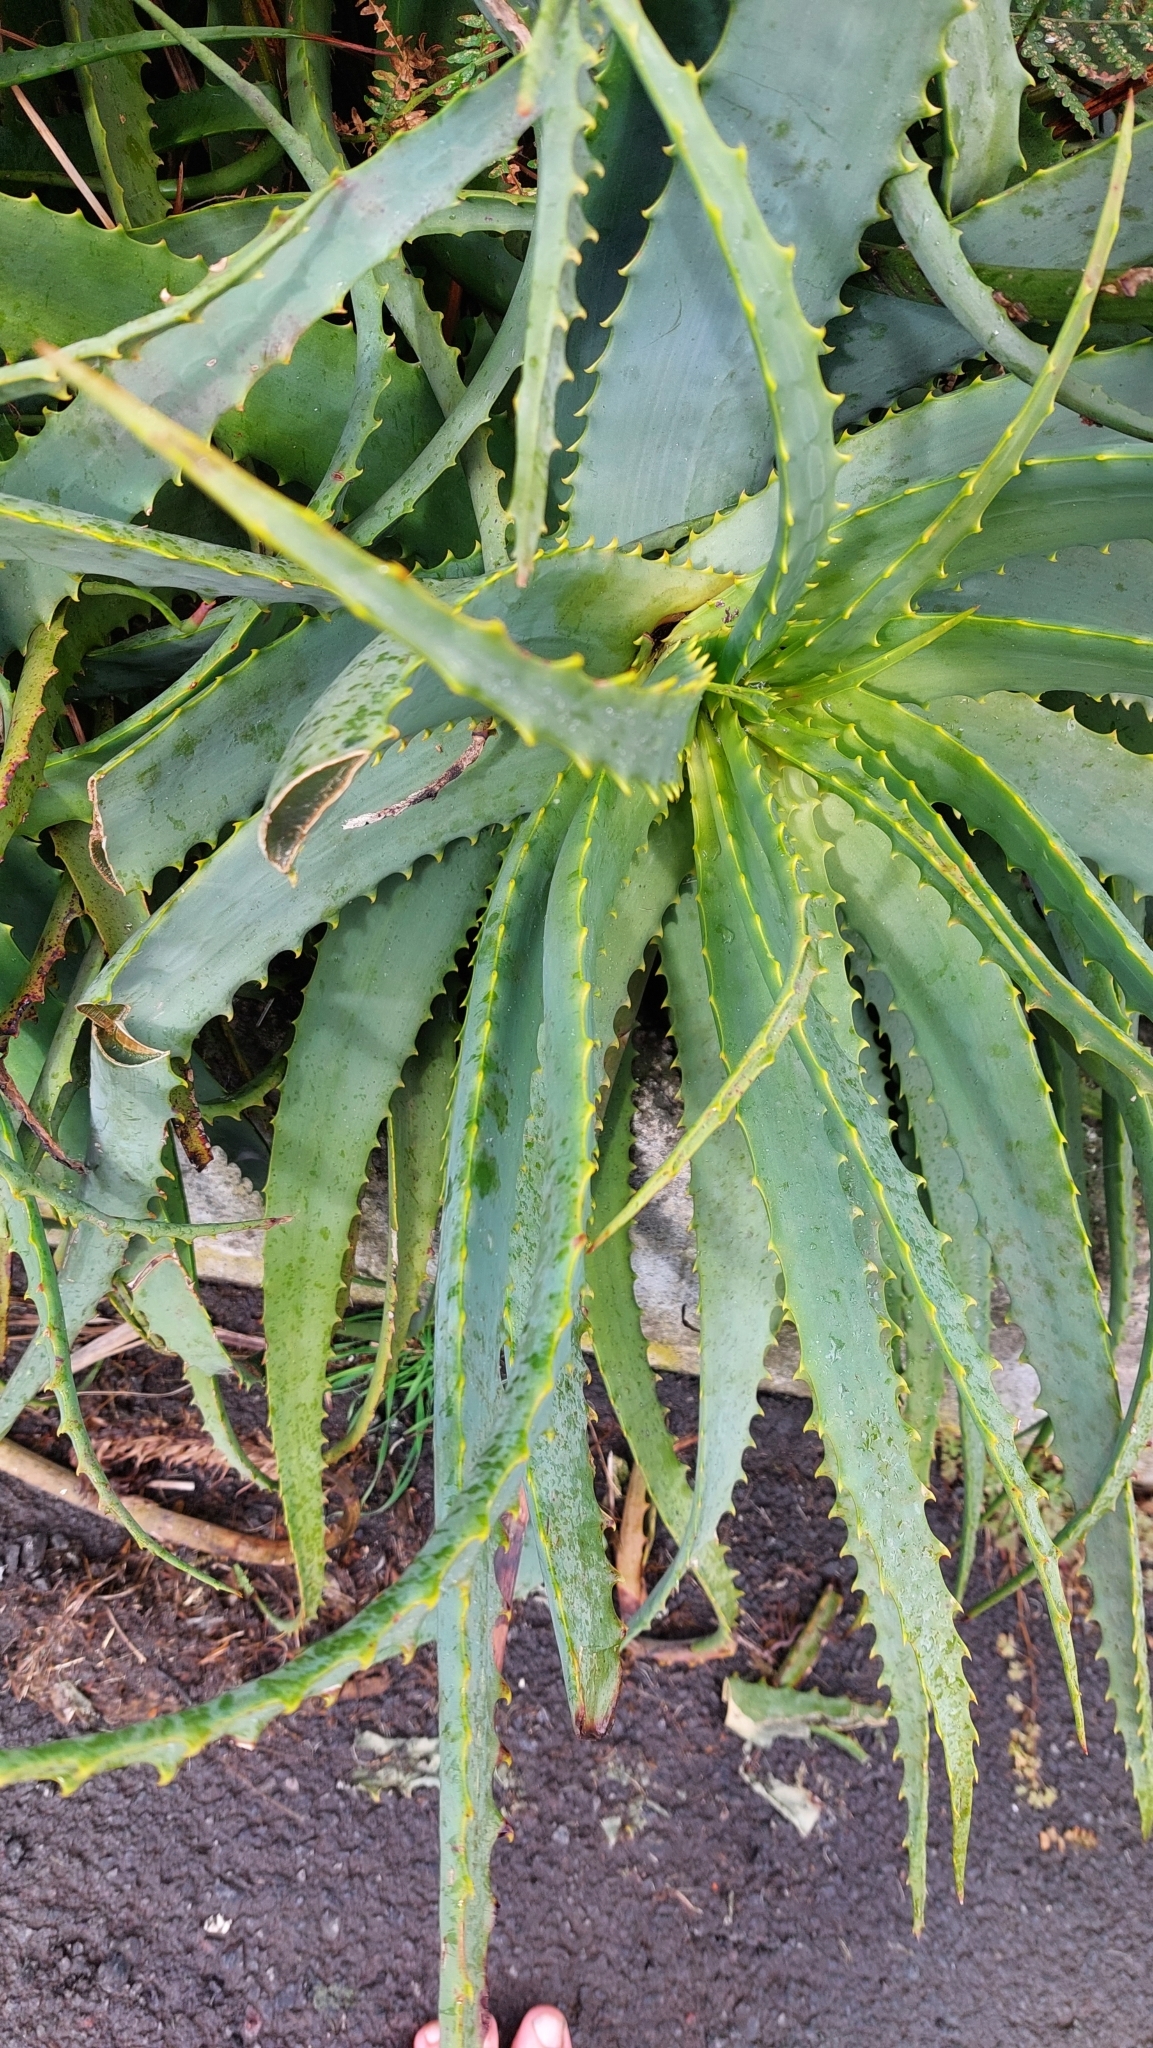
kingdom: Plantae
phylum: Tracheophyta
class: Liliopsida
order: Asparagales
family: Asphodelaceae
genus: Aloe
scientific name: Aloe arborescens
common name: Candelabra aloe
